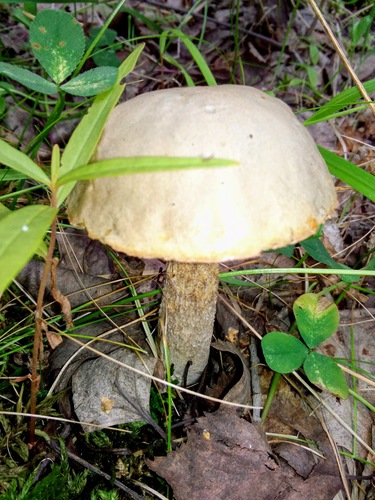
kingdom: Fungi
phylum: Basidiomycota
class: Agaricomycetes
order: Boletales
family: Boletaceae
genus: Leccinum
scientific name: Leccinum holopus
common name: Ghost bolete
